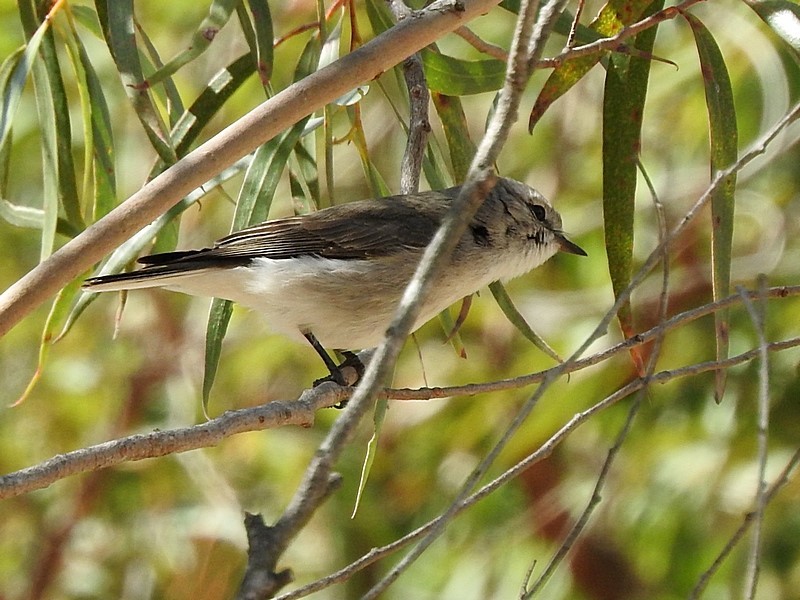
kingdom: Animalia
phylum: Chordata
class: Aves
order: Passeriformes
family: Petroicidae
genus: Microeca
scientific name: Microeca fascinans
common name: Jacky winter
